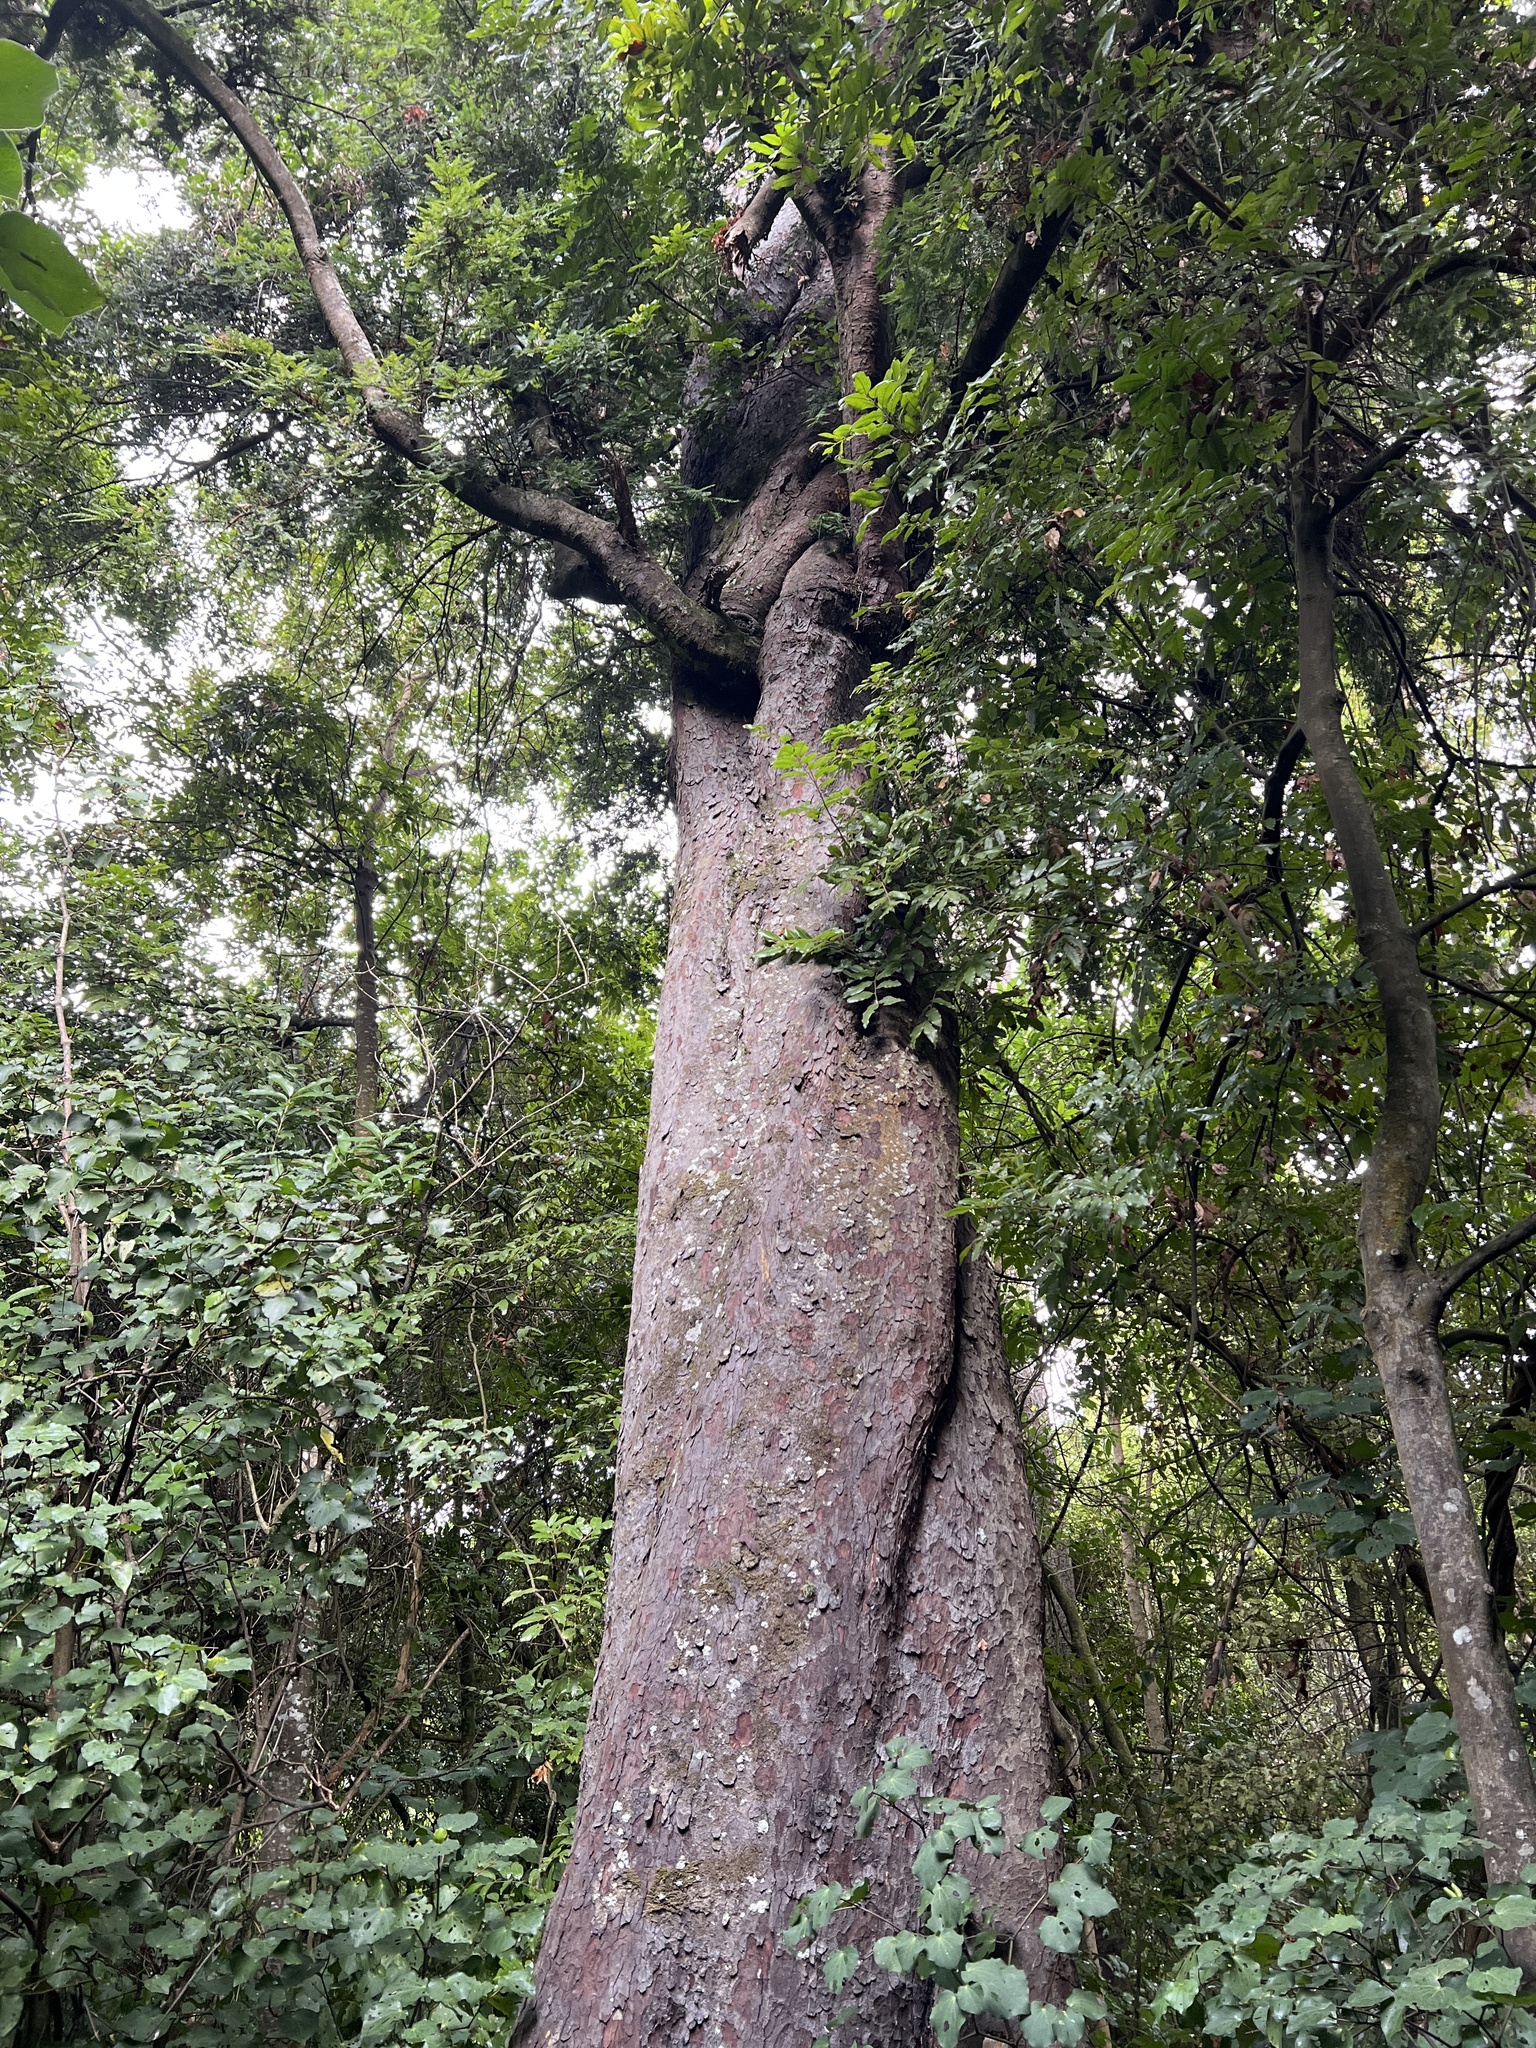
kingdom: Plantae
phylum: Tracheophyta
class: Pinopsida
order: Pinales
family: Podocarpaceae
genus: Prumnopitys
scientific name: Prumnopitys ferruginea
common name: Brown pine
